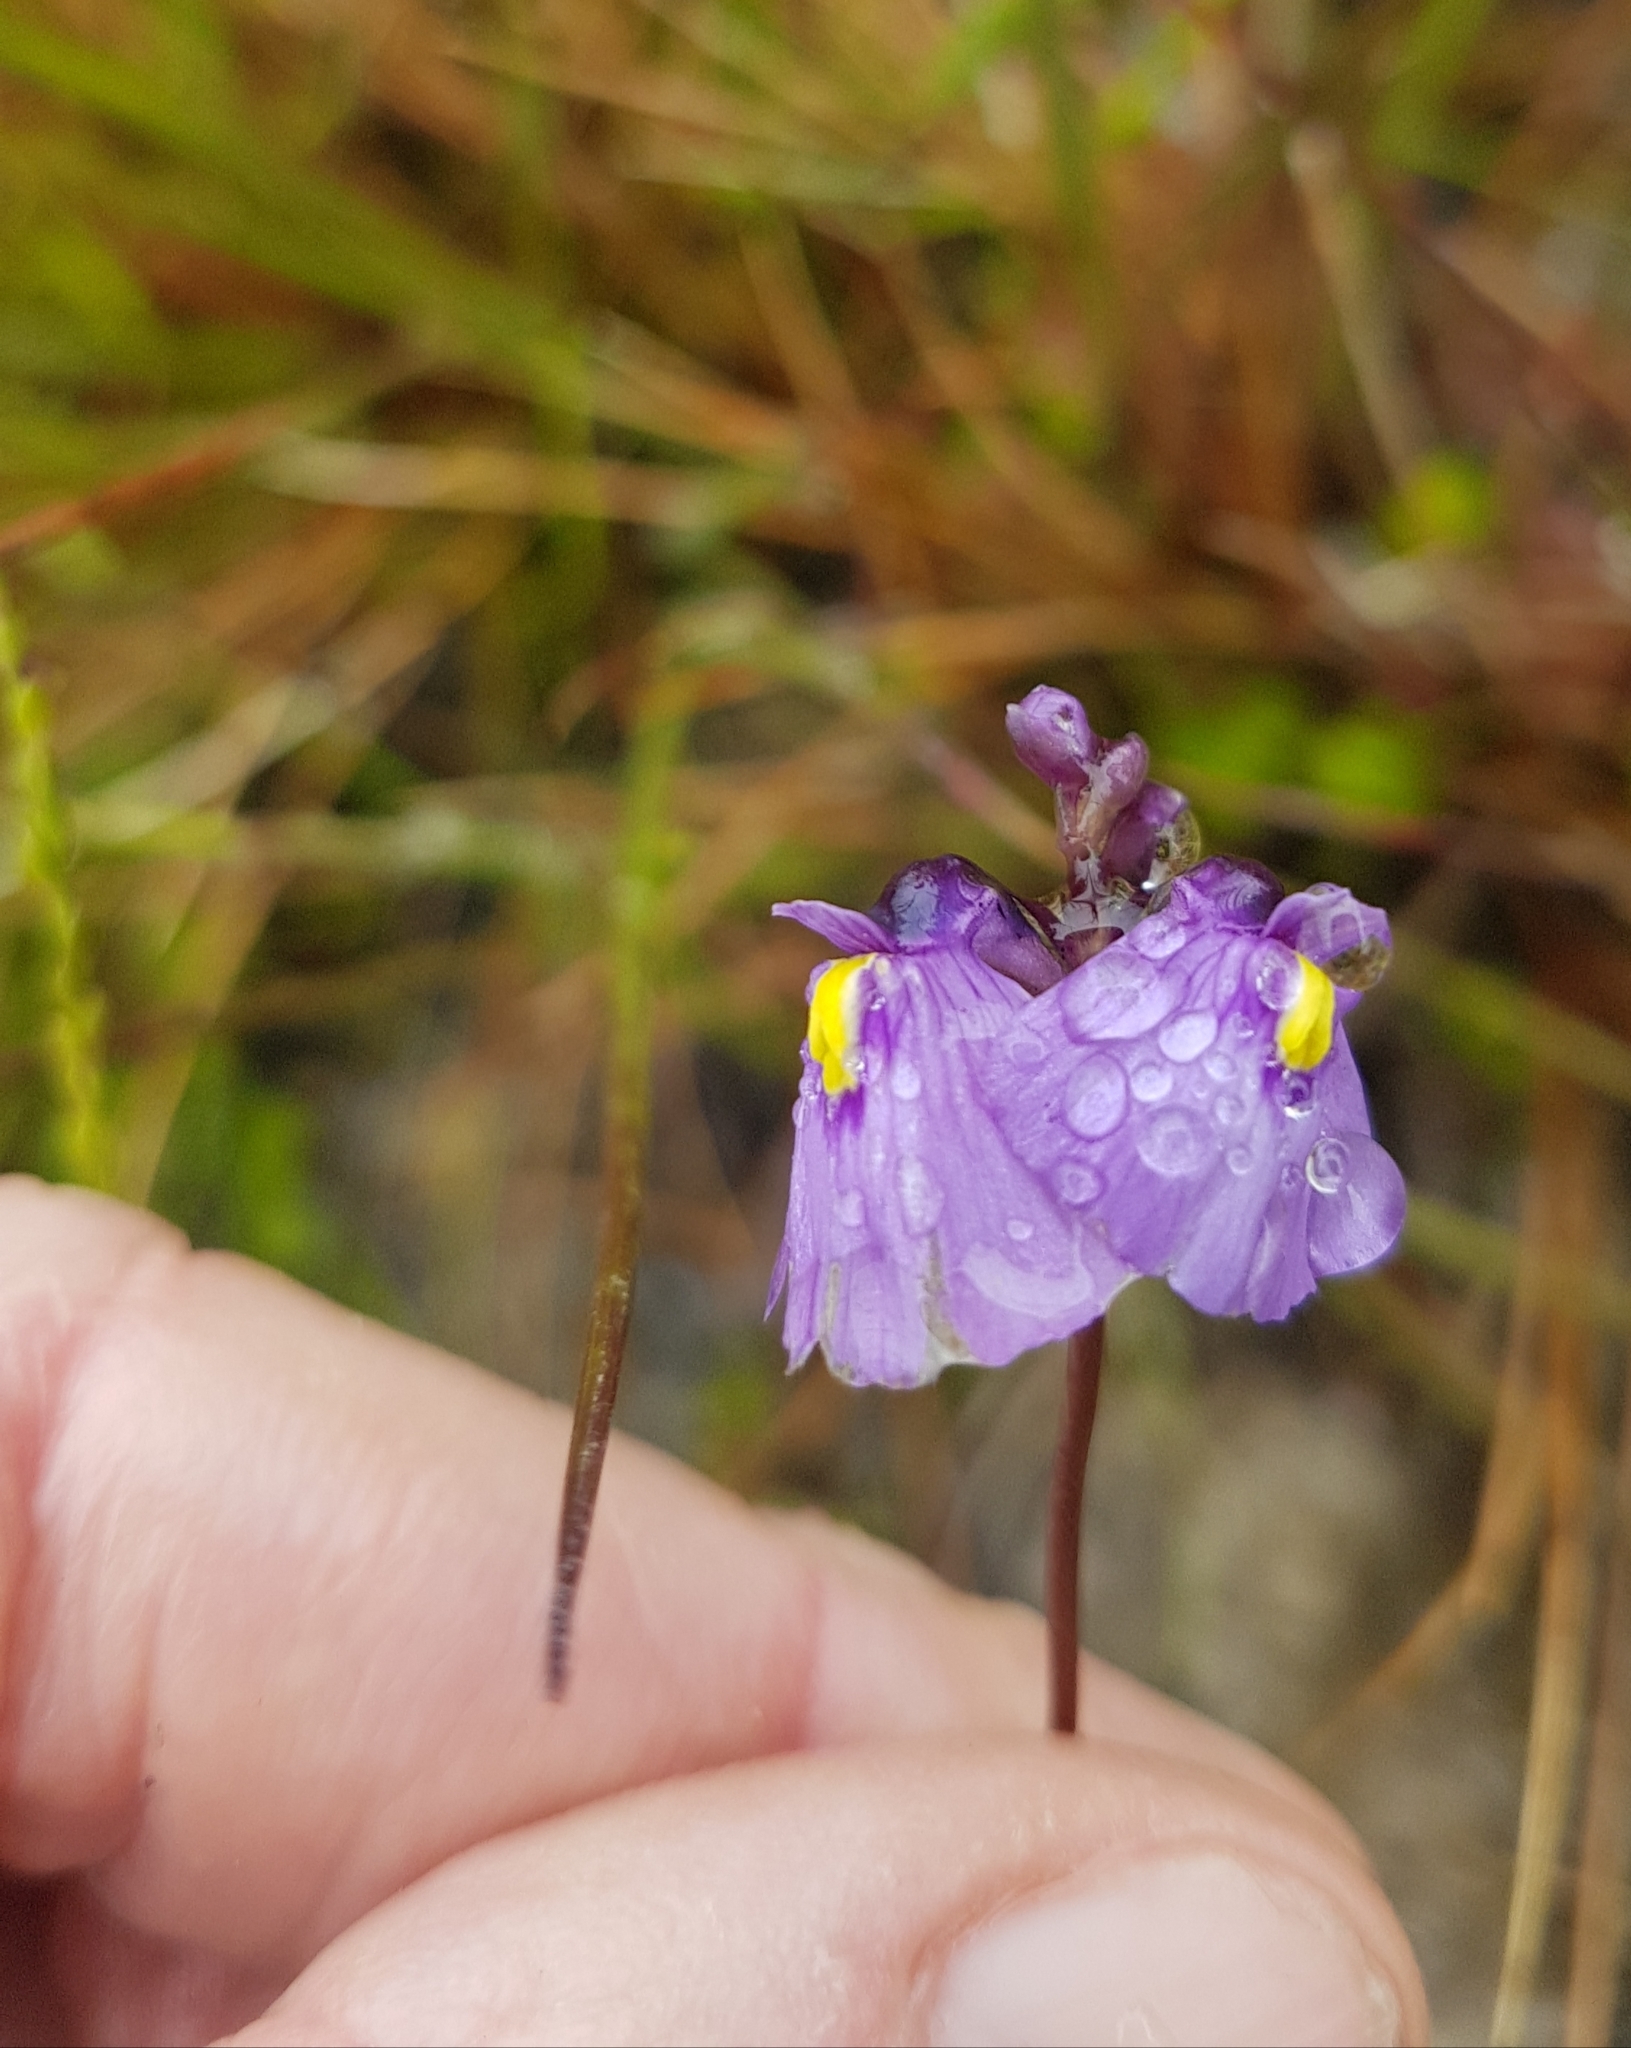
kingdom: Plantae
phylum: Tracheophyta
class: Magnoliopsida
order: Lamiales
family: Lentibulariaceae
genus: Utricularia
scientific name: Utricularia dichotoma
